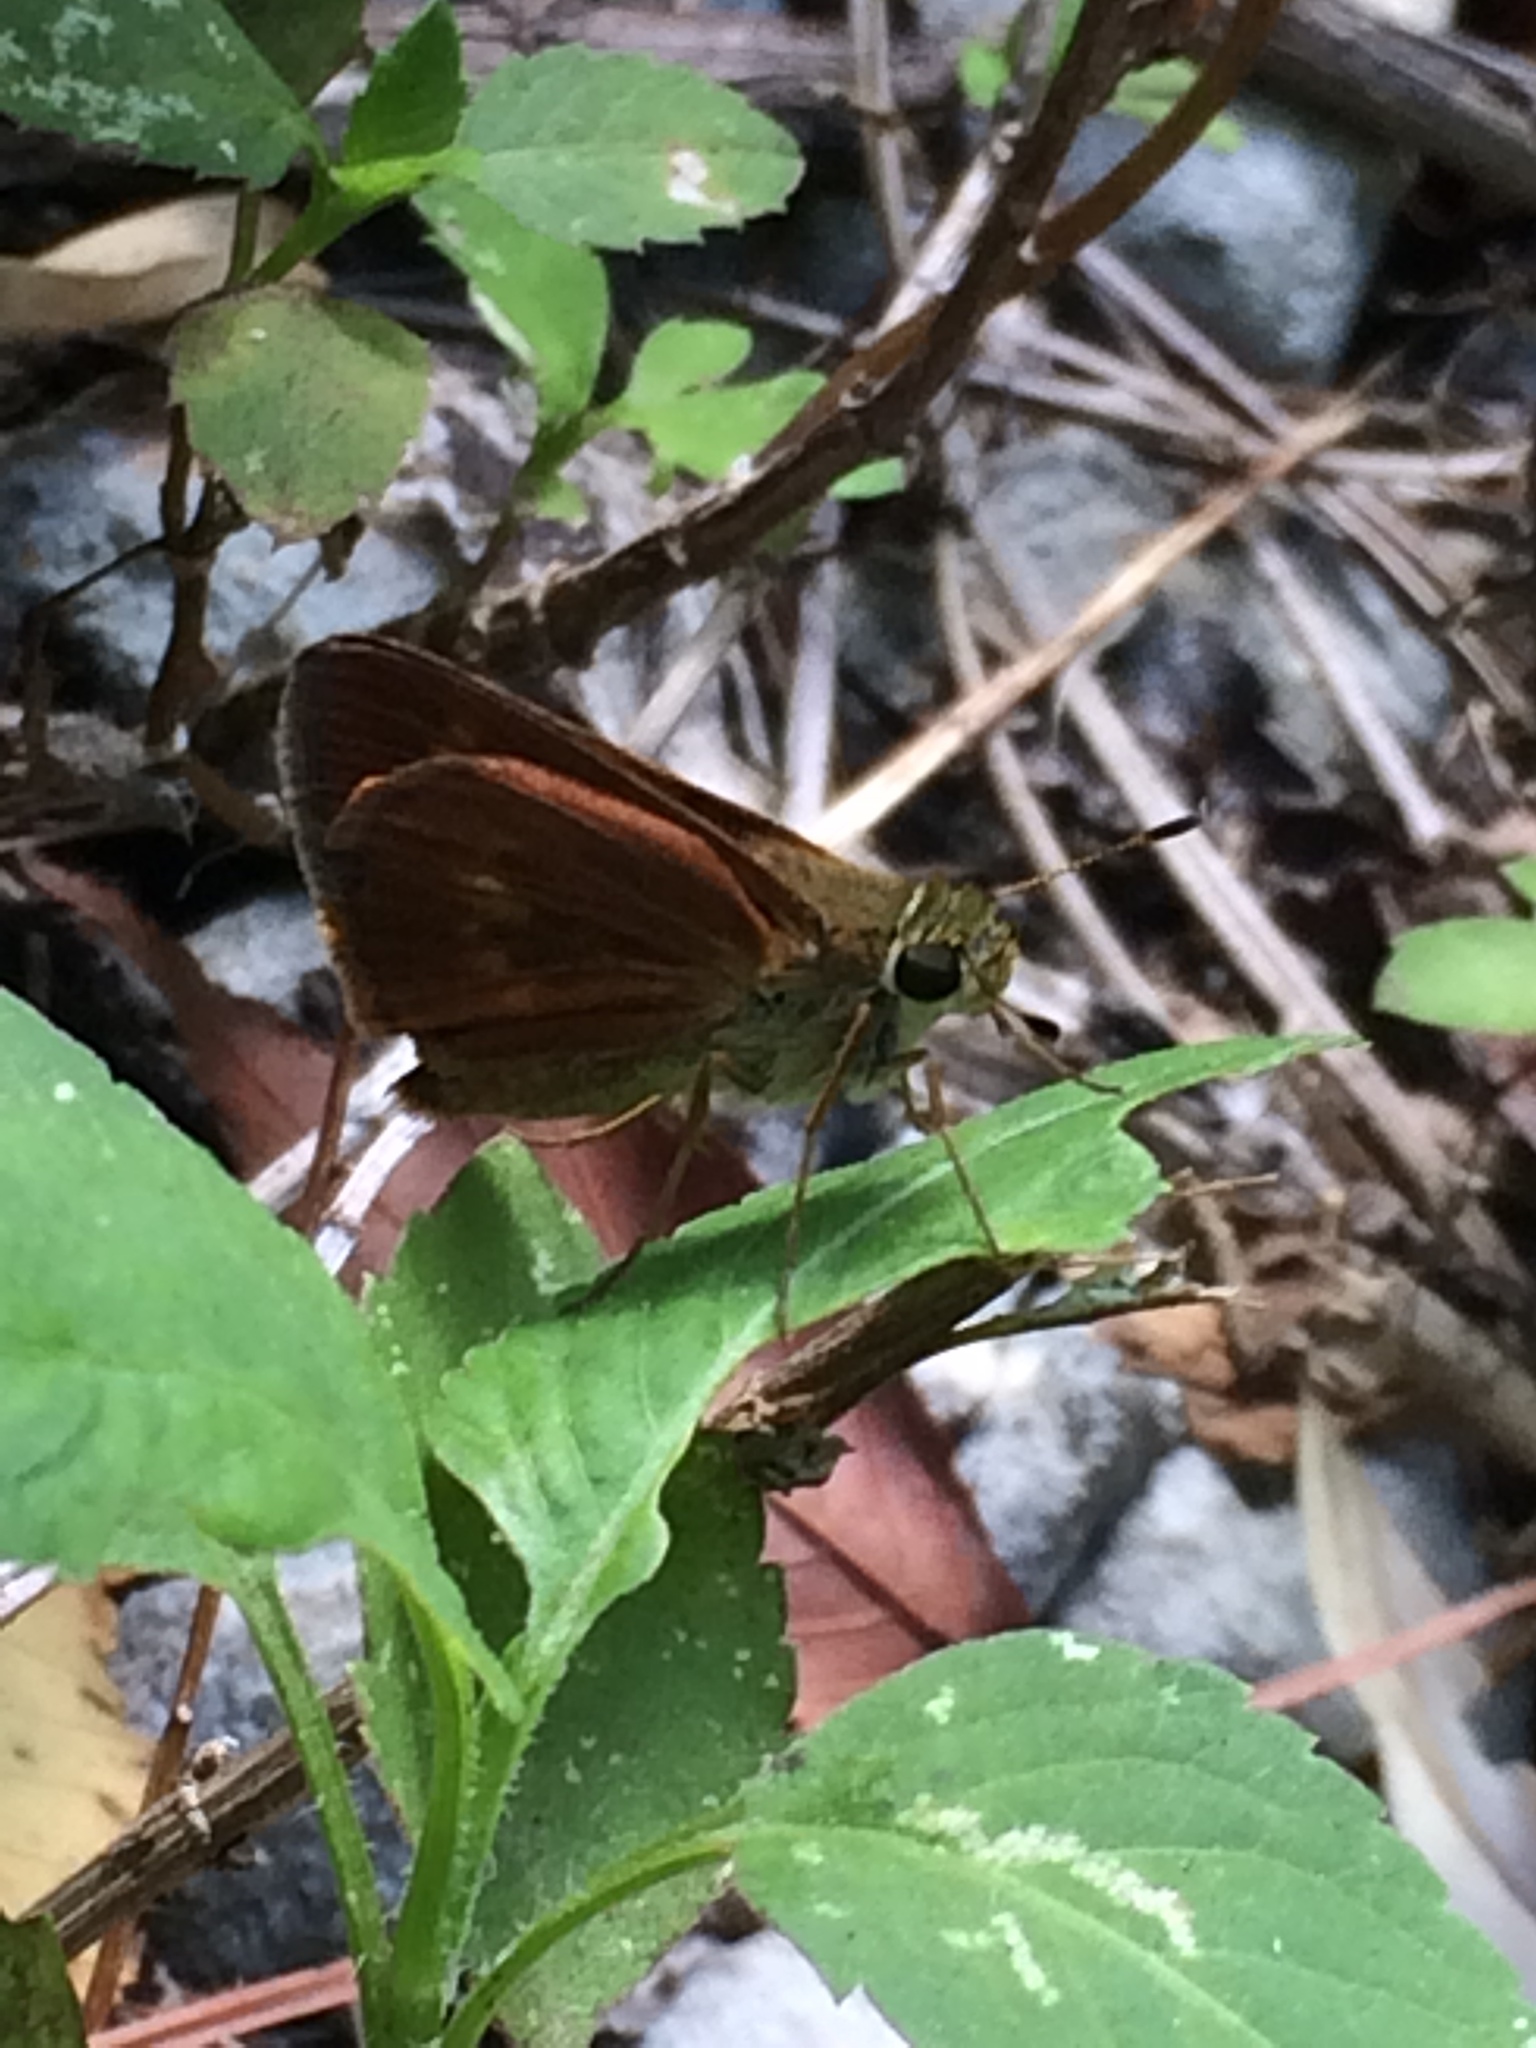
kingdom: Animalia
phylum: Arthropoda
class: Insecta
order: Lepidoptera
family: Hesperiidae
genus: Polites
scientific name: Polites otho
